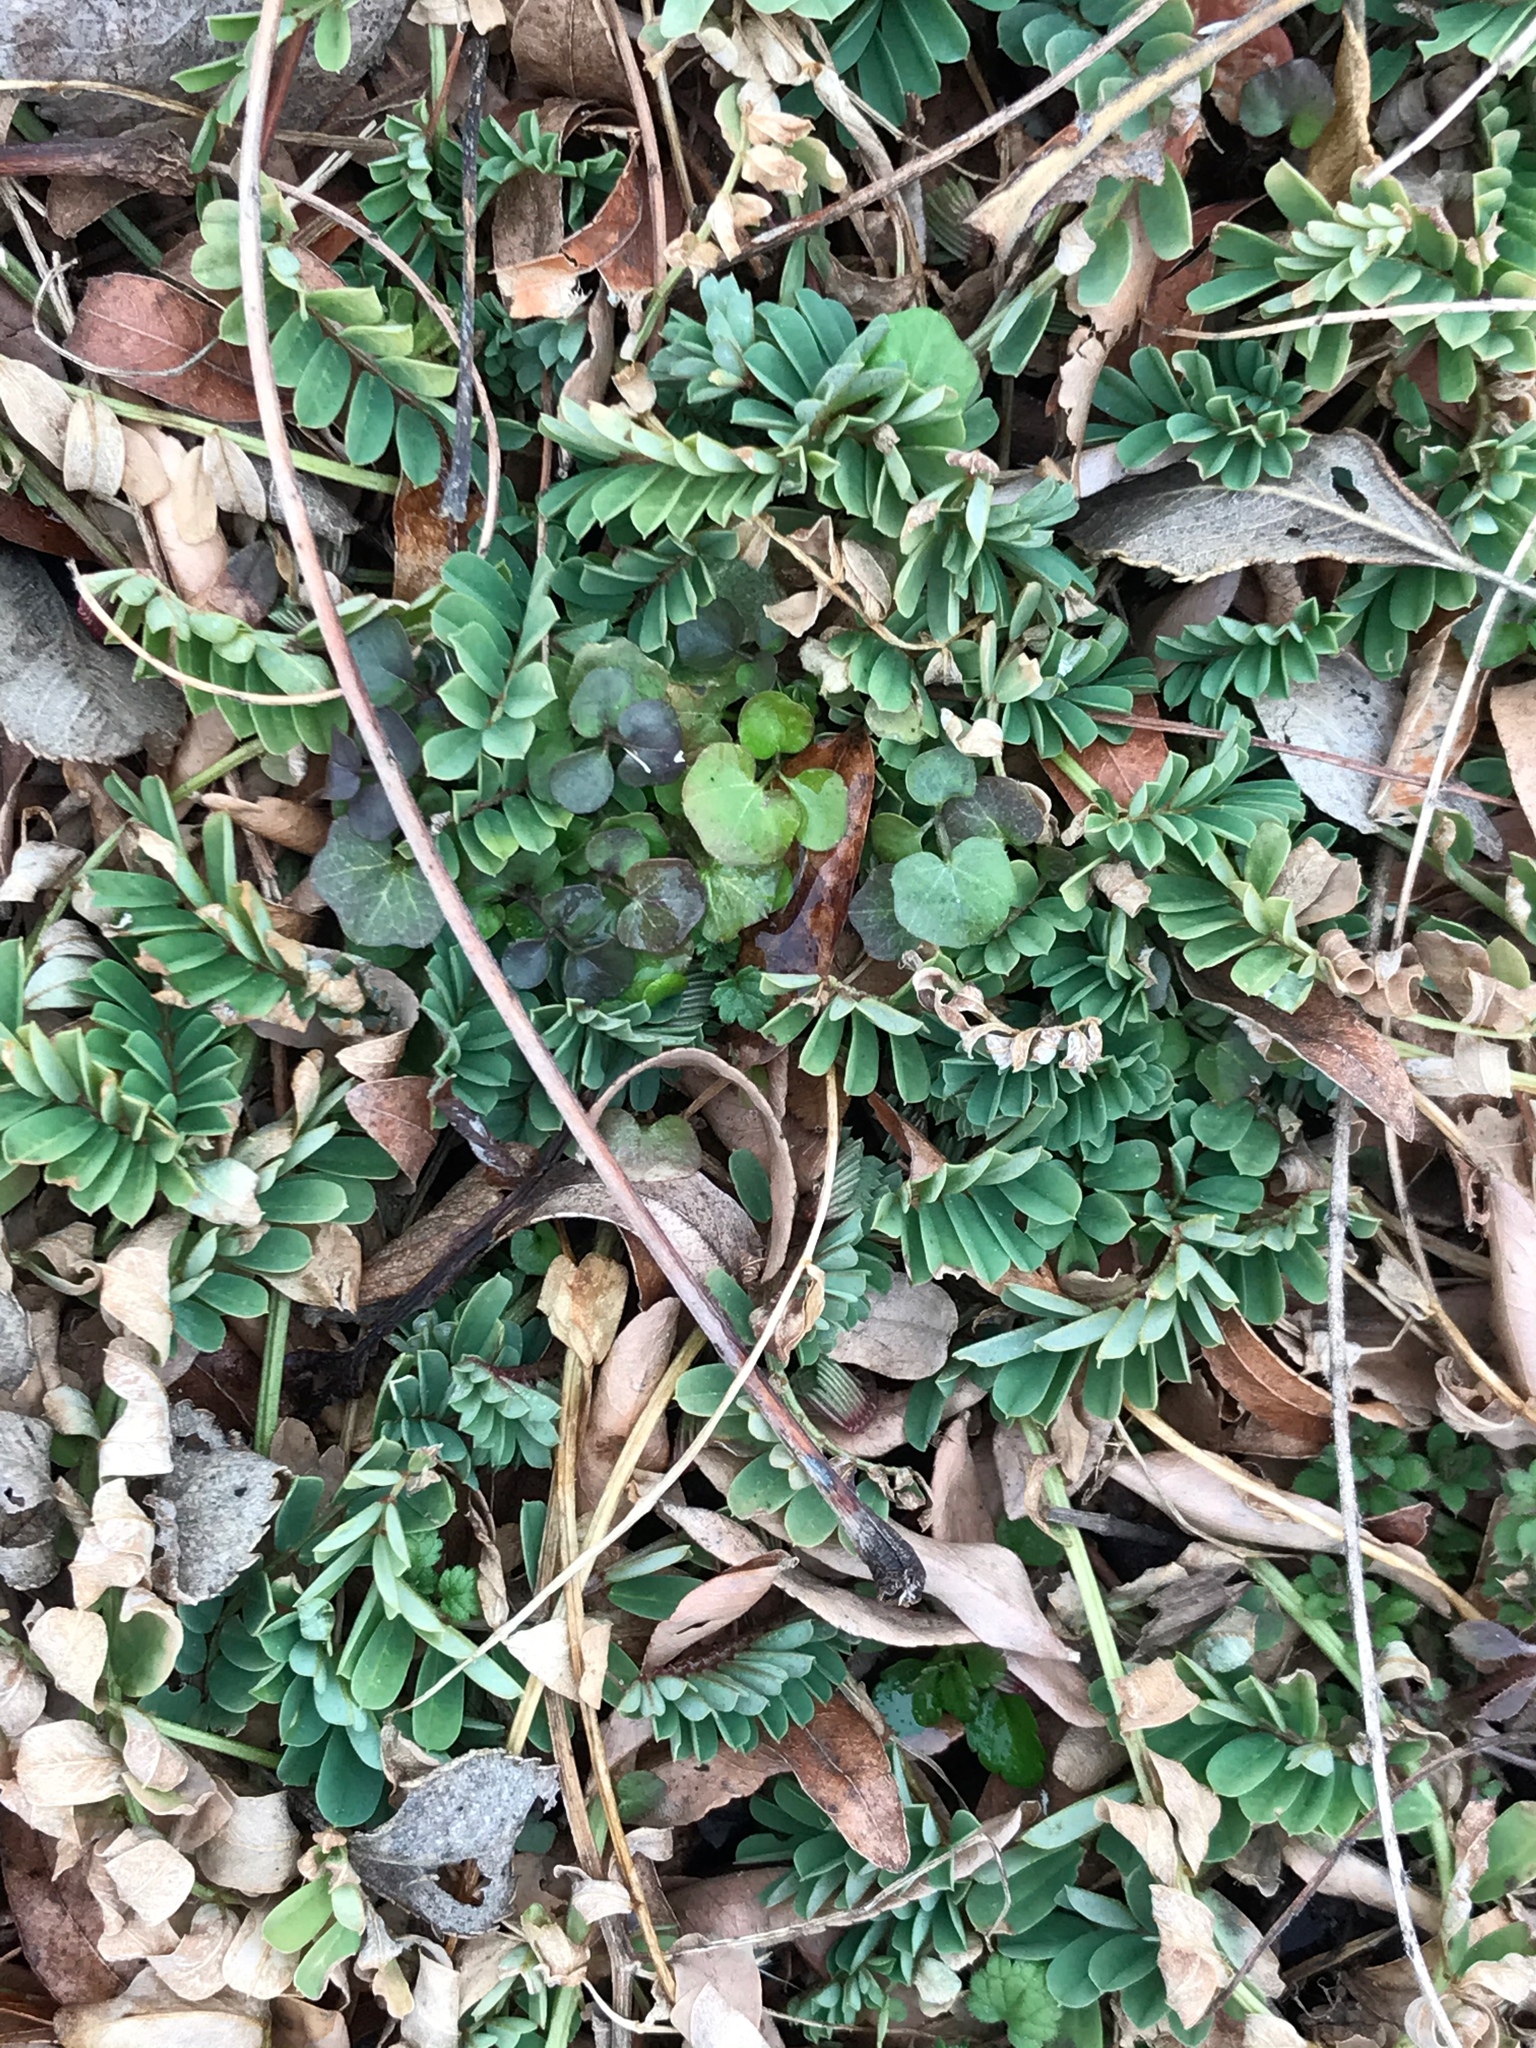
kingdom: Plantae
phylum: Tracheophyta
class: Magnoliopsida
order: Fabales
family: Fabaceae
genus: Coronilla
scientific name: Coronilla varia
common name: Crownvetch
